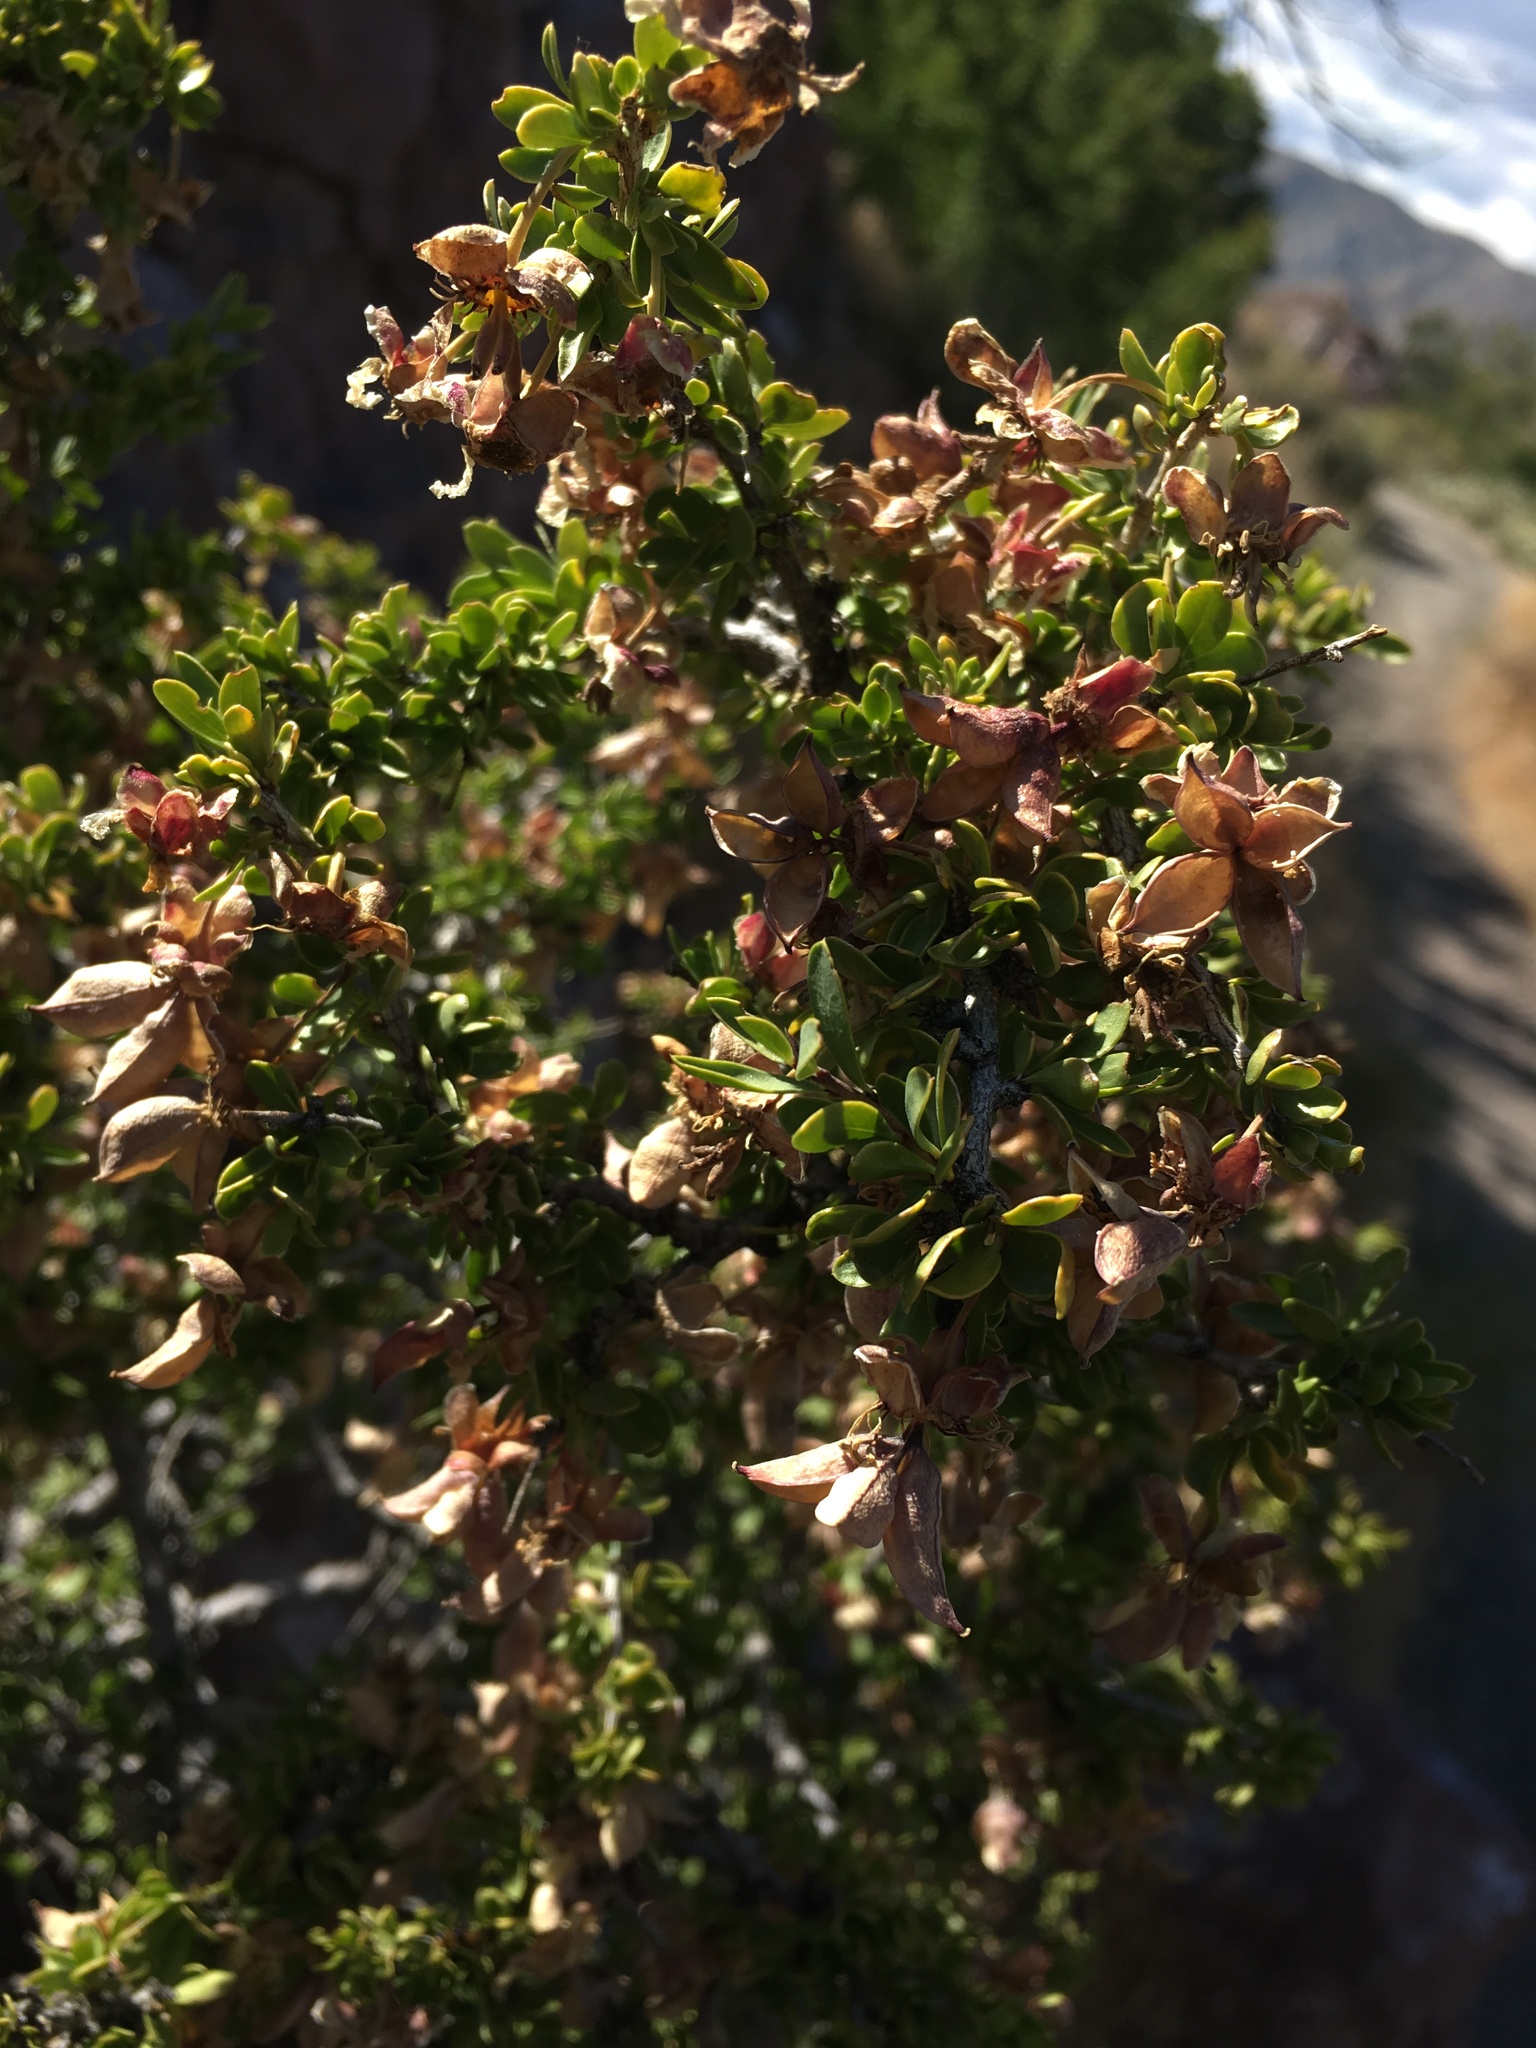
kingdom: Plantae
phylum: Tracheophyta
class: Magnoliopsida
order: Crossosomatales
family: Crossosomataceae
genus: Crossosoma
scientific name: Crossosoma bigelovii
